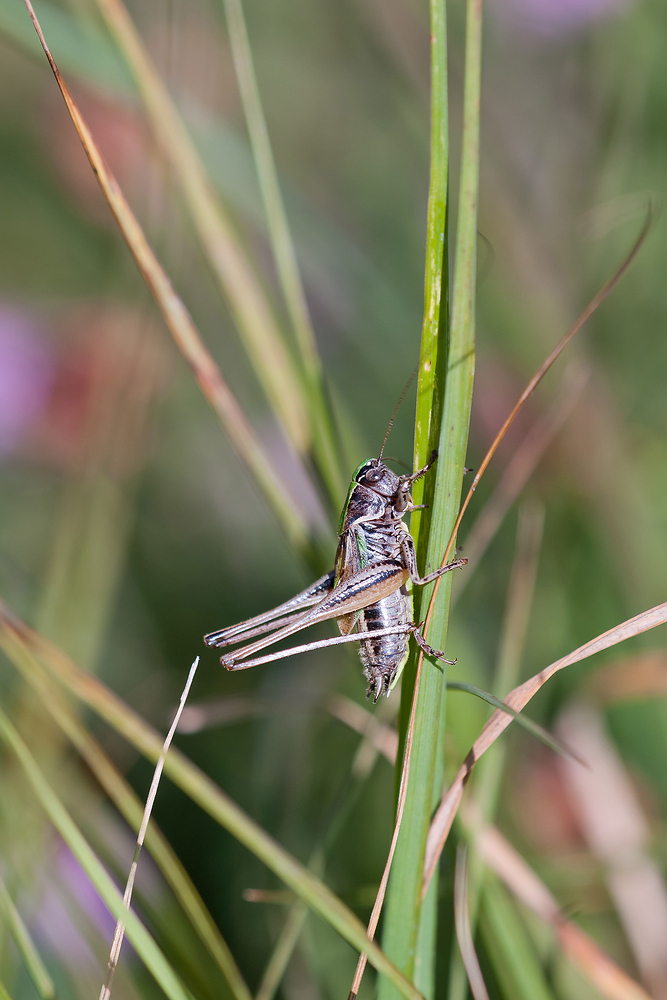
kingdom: Animalia
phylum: Arthropoda
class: Insecta
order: Orthoptera
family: Tettigoniidae
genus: Metrioptera
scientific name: Metrioptera brachyptera
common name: Bog bush-cricket
